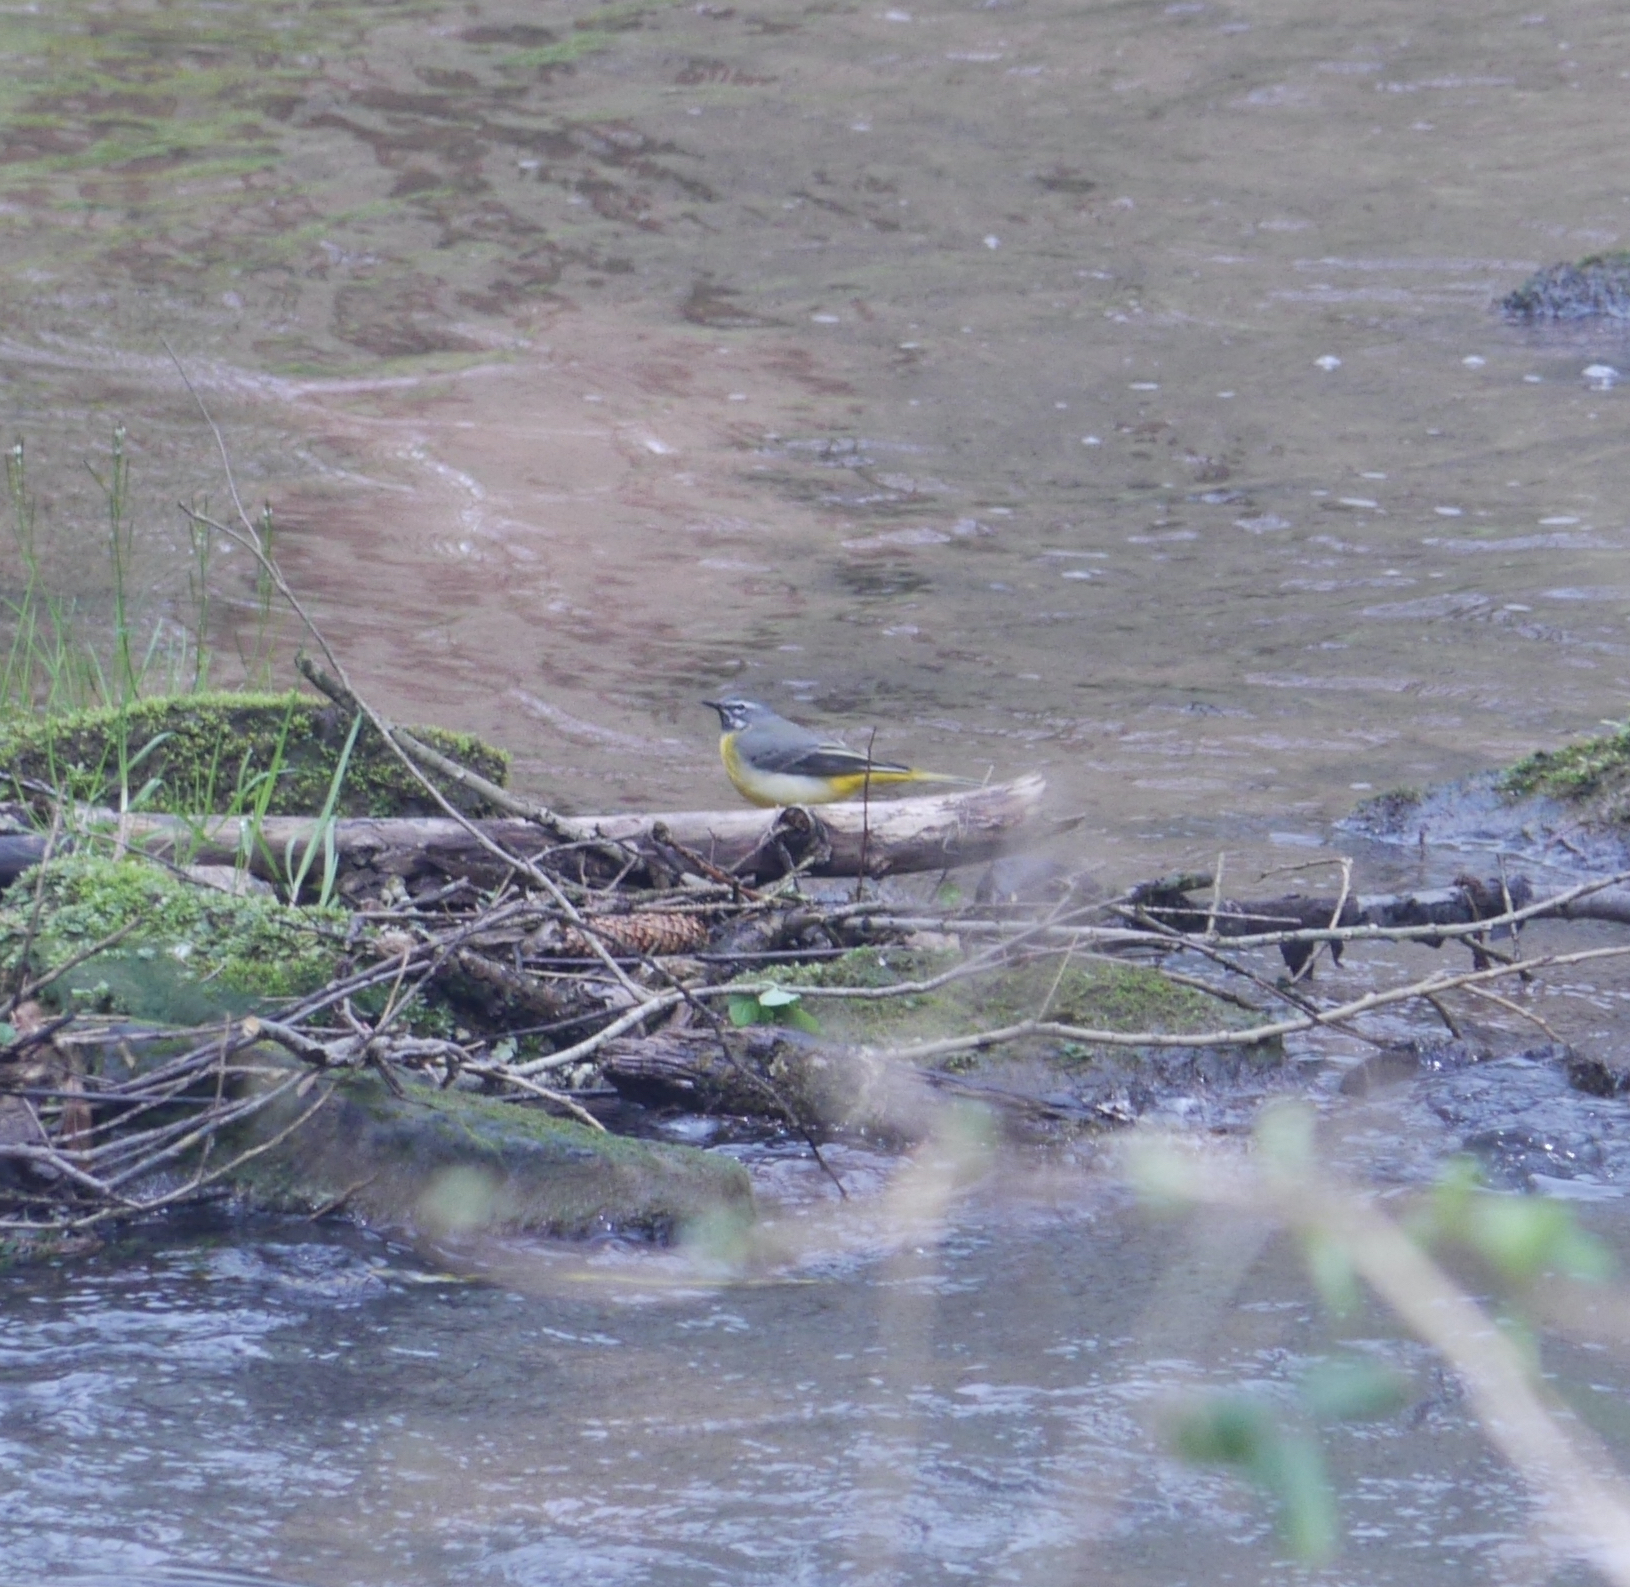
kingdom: Animalia
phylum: Chordata
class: Aves
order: Passeriformes
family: Motacillidae
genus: Motacilla
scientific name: Motacilla cinerea
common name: Grey wagtail
